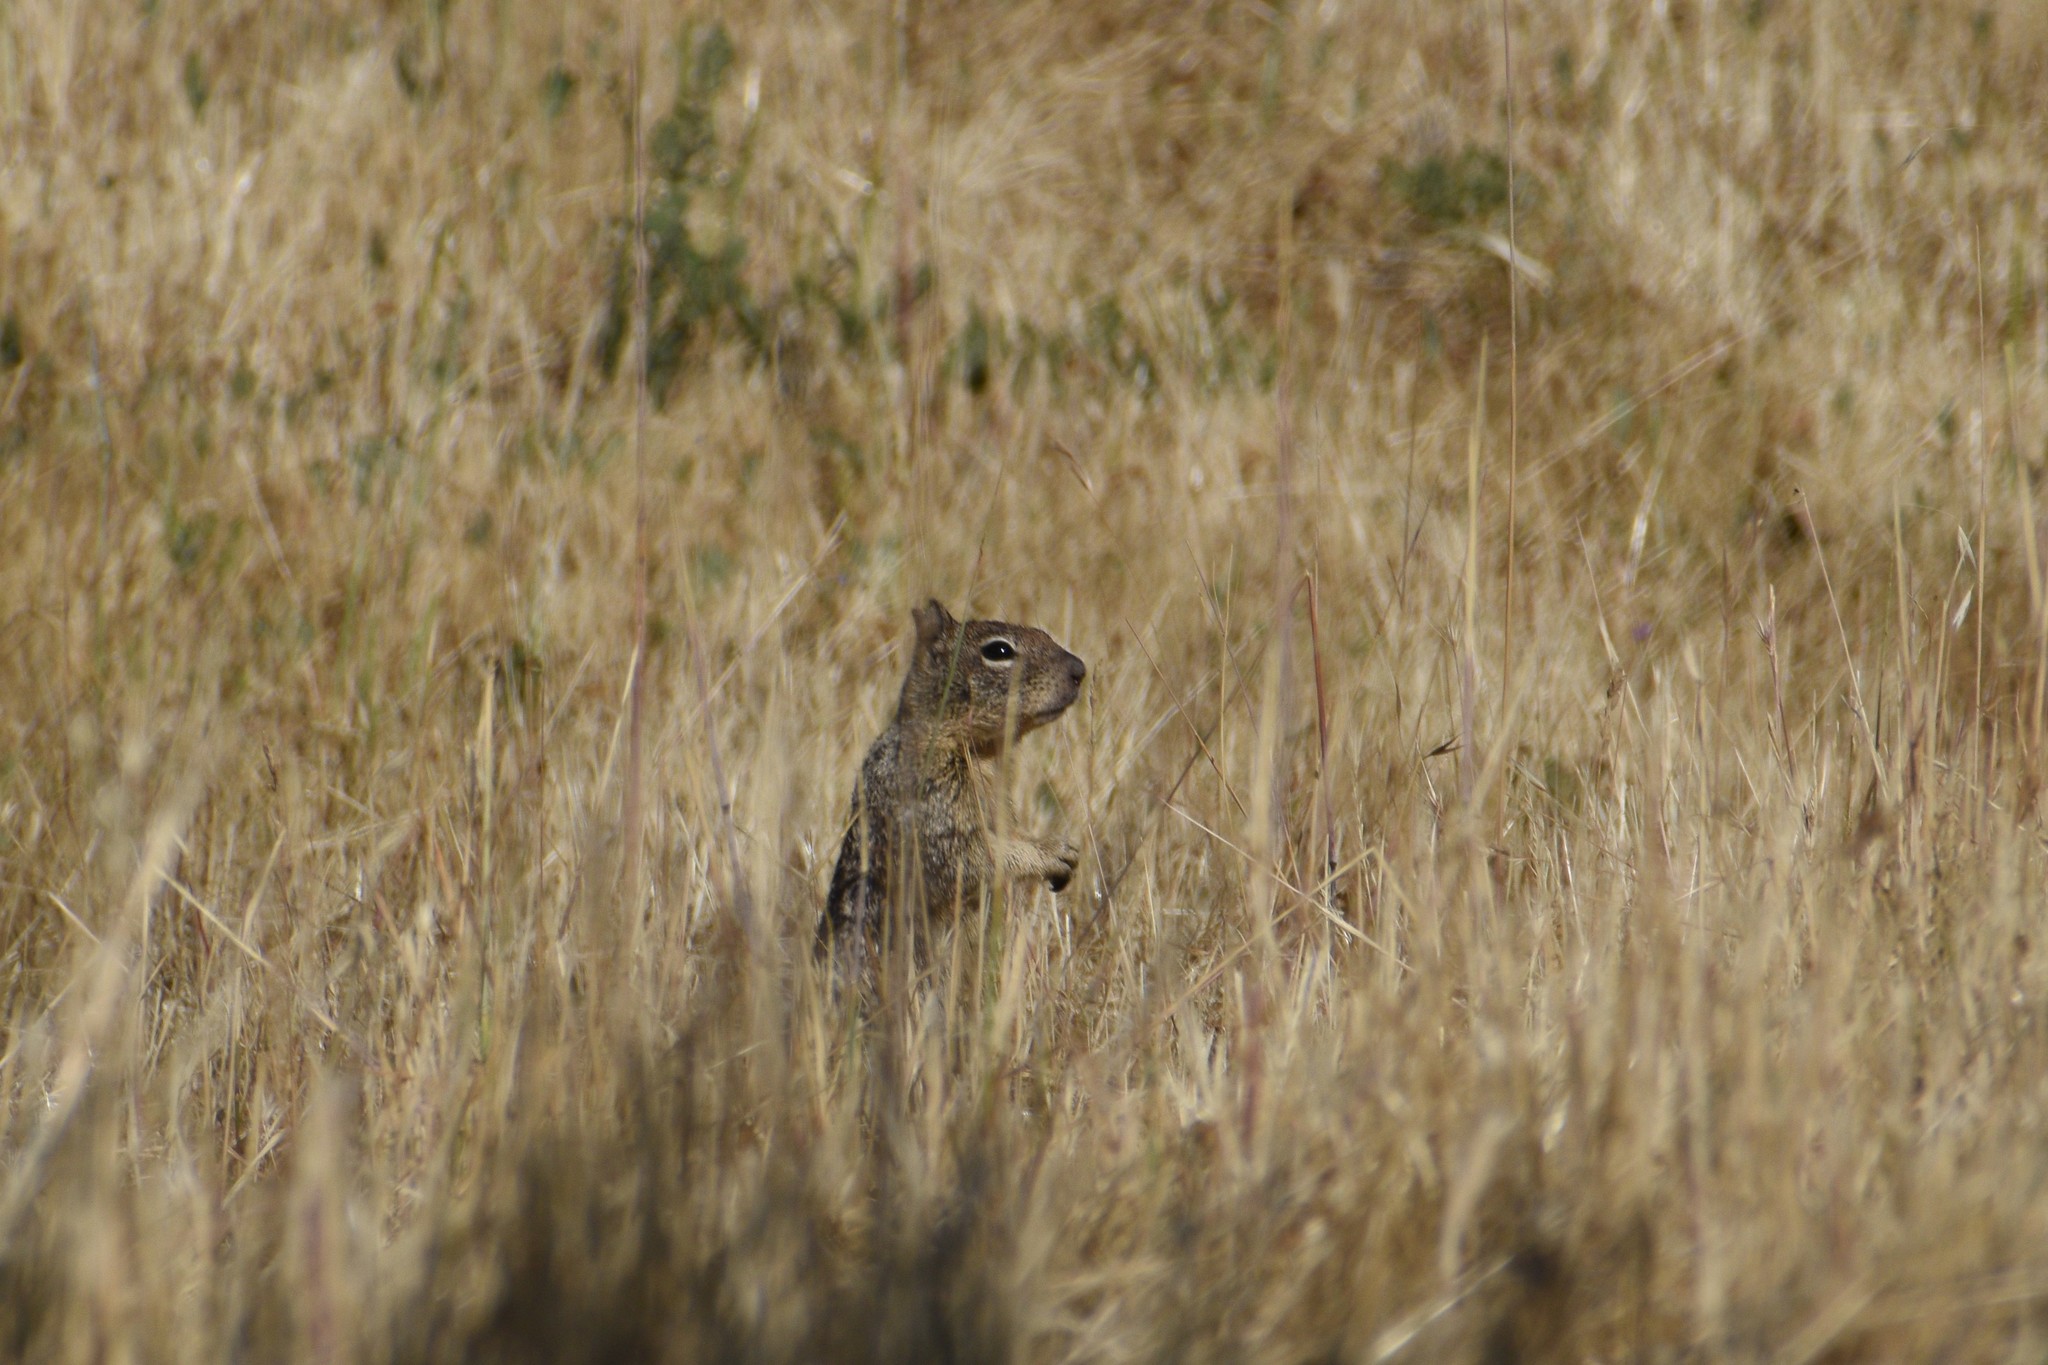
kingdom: Animalia
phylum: Chordata
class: Mammalia
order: Rodentia
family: Sciuridae
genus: Otospermophilus
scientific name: Otospermophilus beecheyi
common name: California ground squirrel
